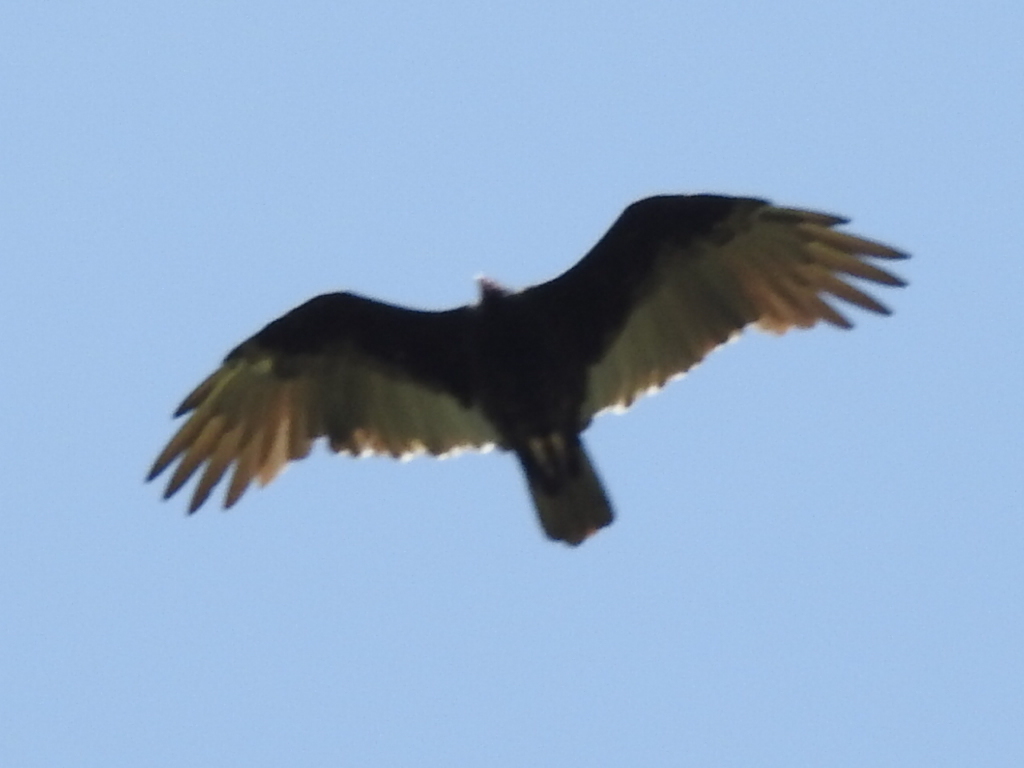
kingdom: Animalia
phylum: Chordata
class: Aves
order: Accipitriformes
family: Cathartidae
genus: Cathartes
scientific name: Cathartes aura
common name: Turkey vulture
